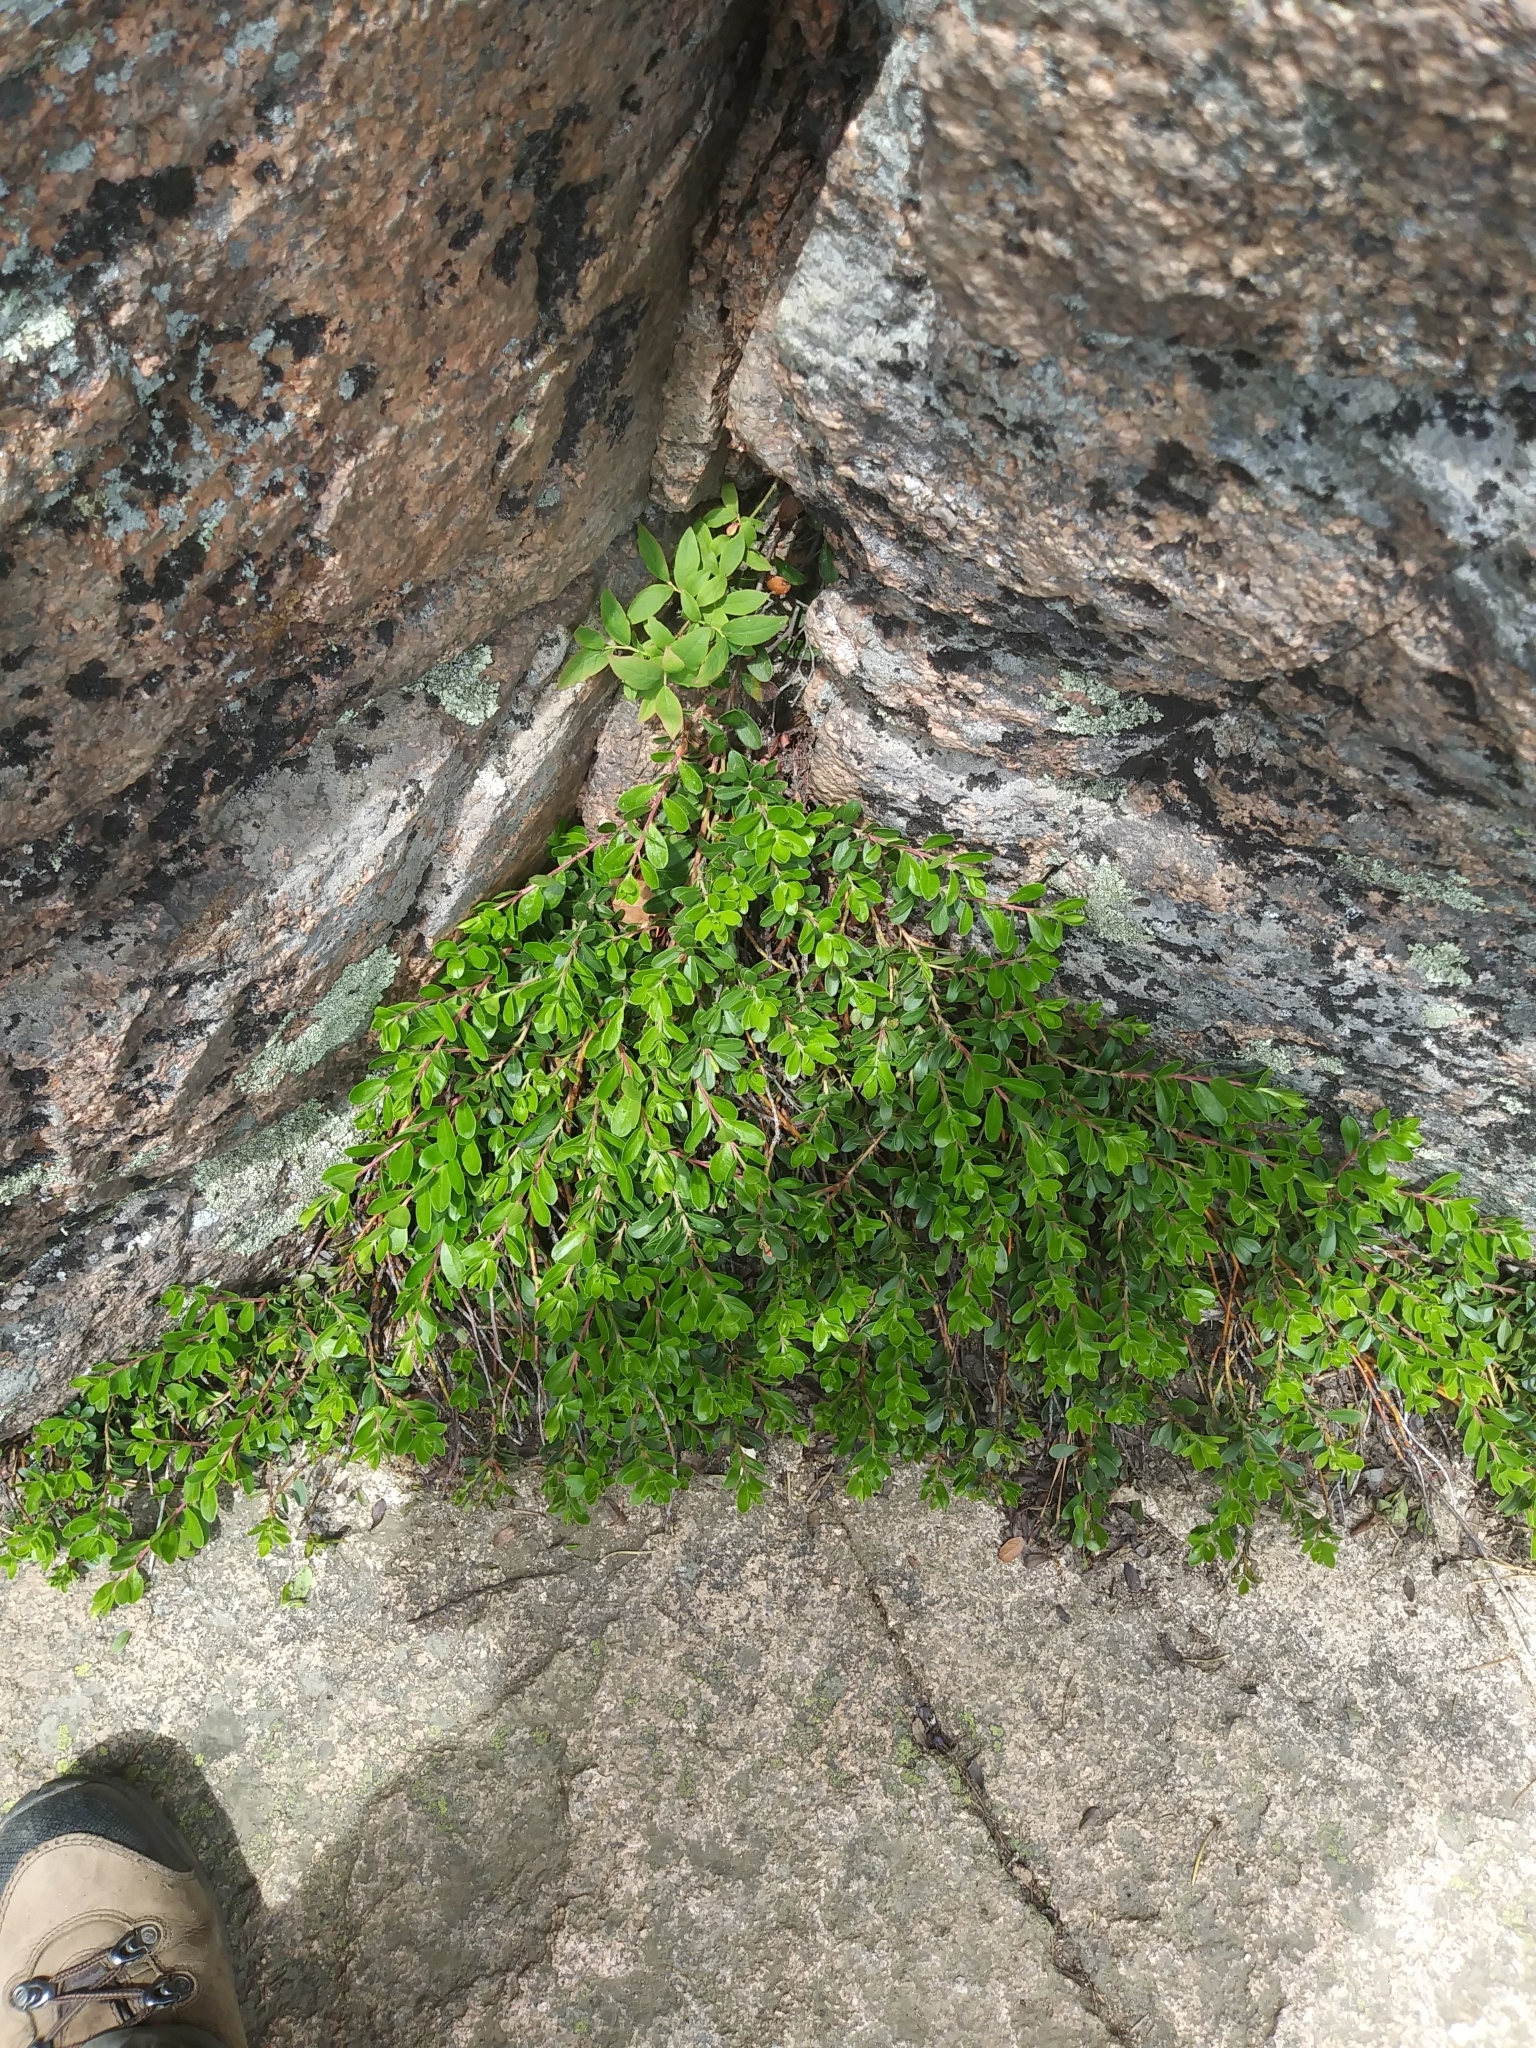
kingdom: Plantae
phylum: Tracheophyta
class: Magnoliopsida
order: Ericales
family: Ericaceae
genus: Arctostaphylos
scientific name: Arctostaphylos uva-ursi
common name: Bearberry
